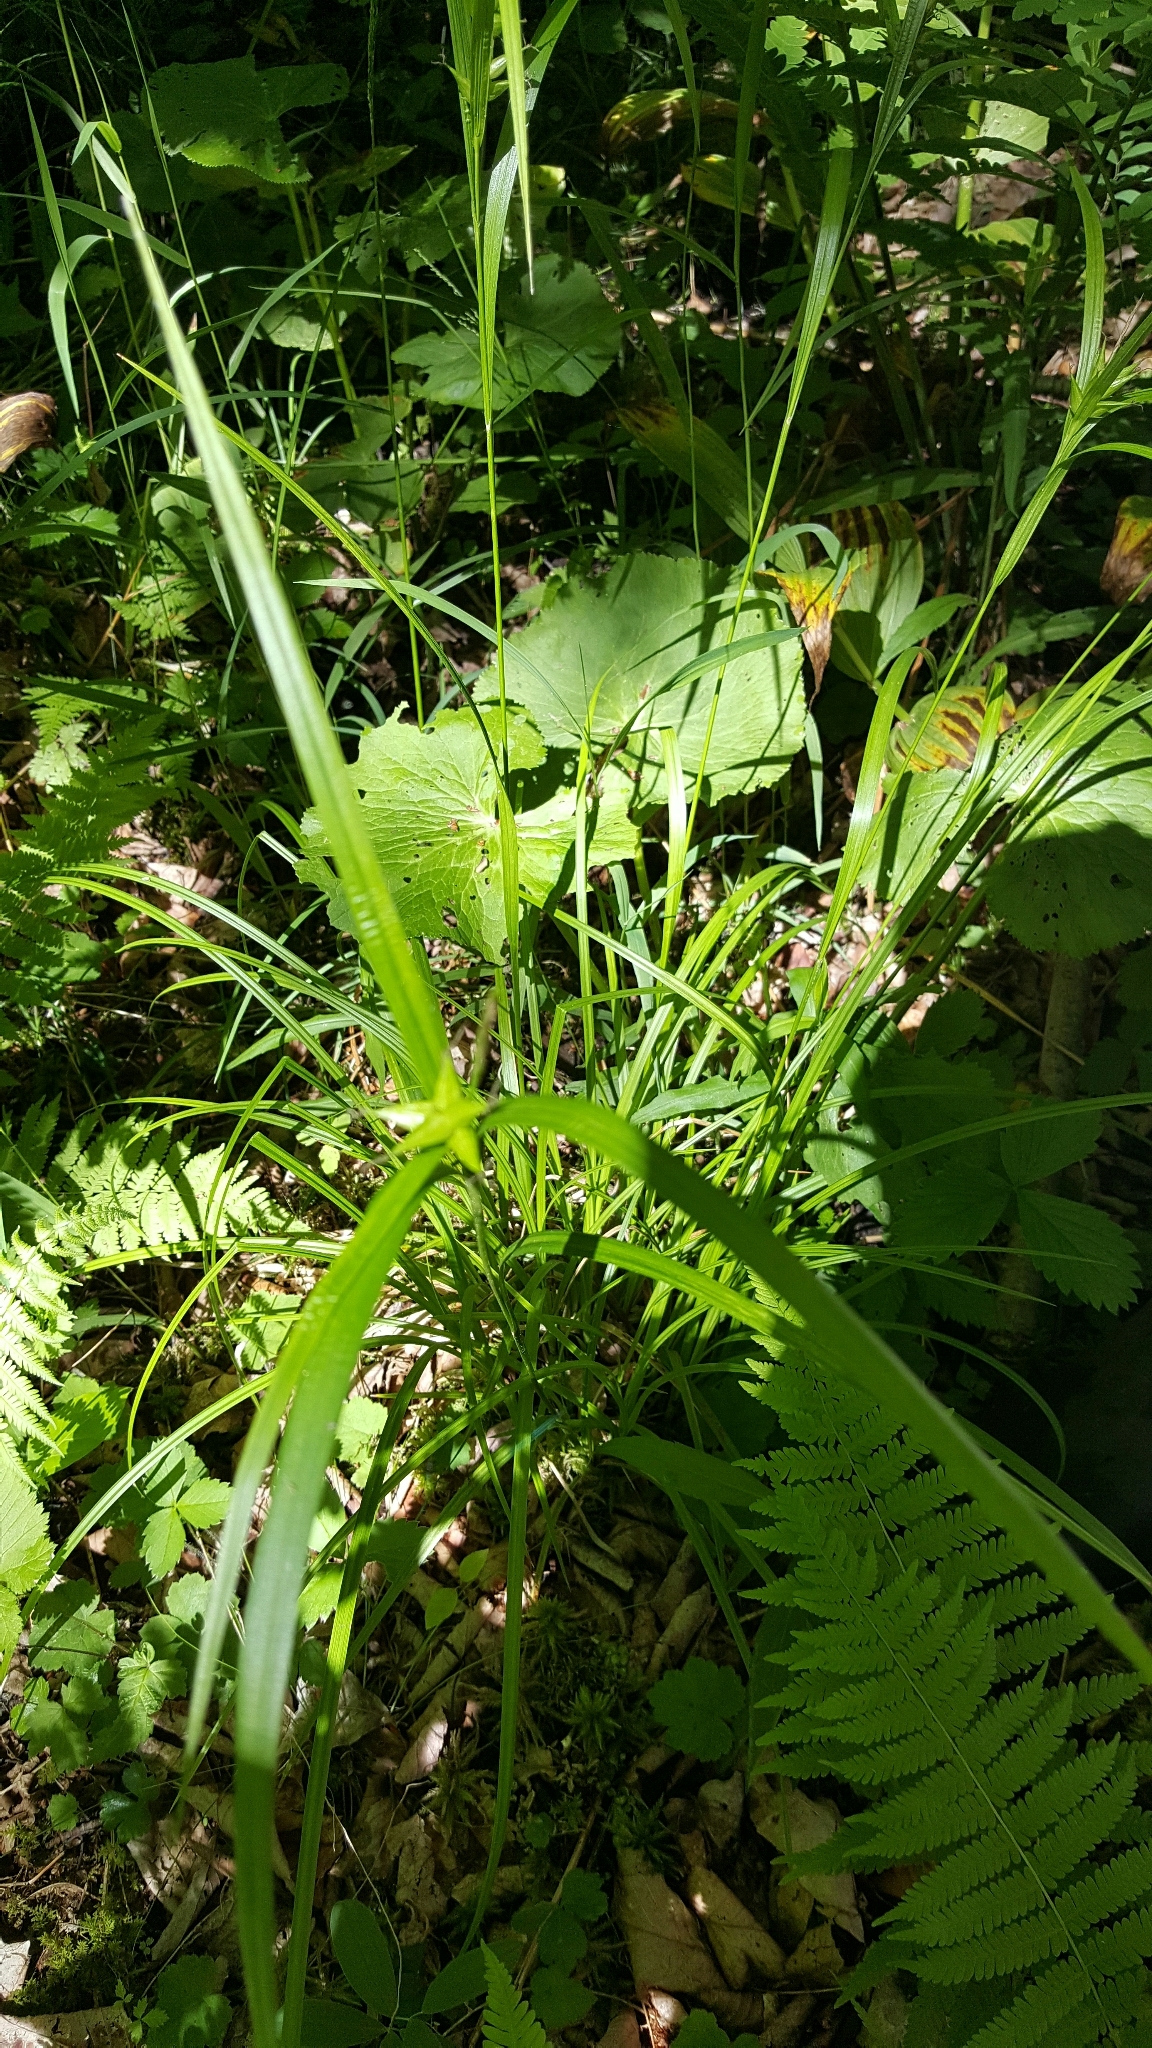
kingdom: Plantae
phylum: Tracheophyta
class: Liliopsida
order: Poales
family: Cyperaceae
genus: Carex
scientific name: Carex intumescens
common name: Greater bladder sedge
